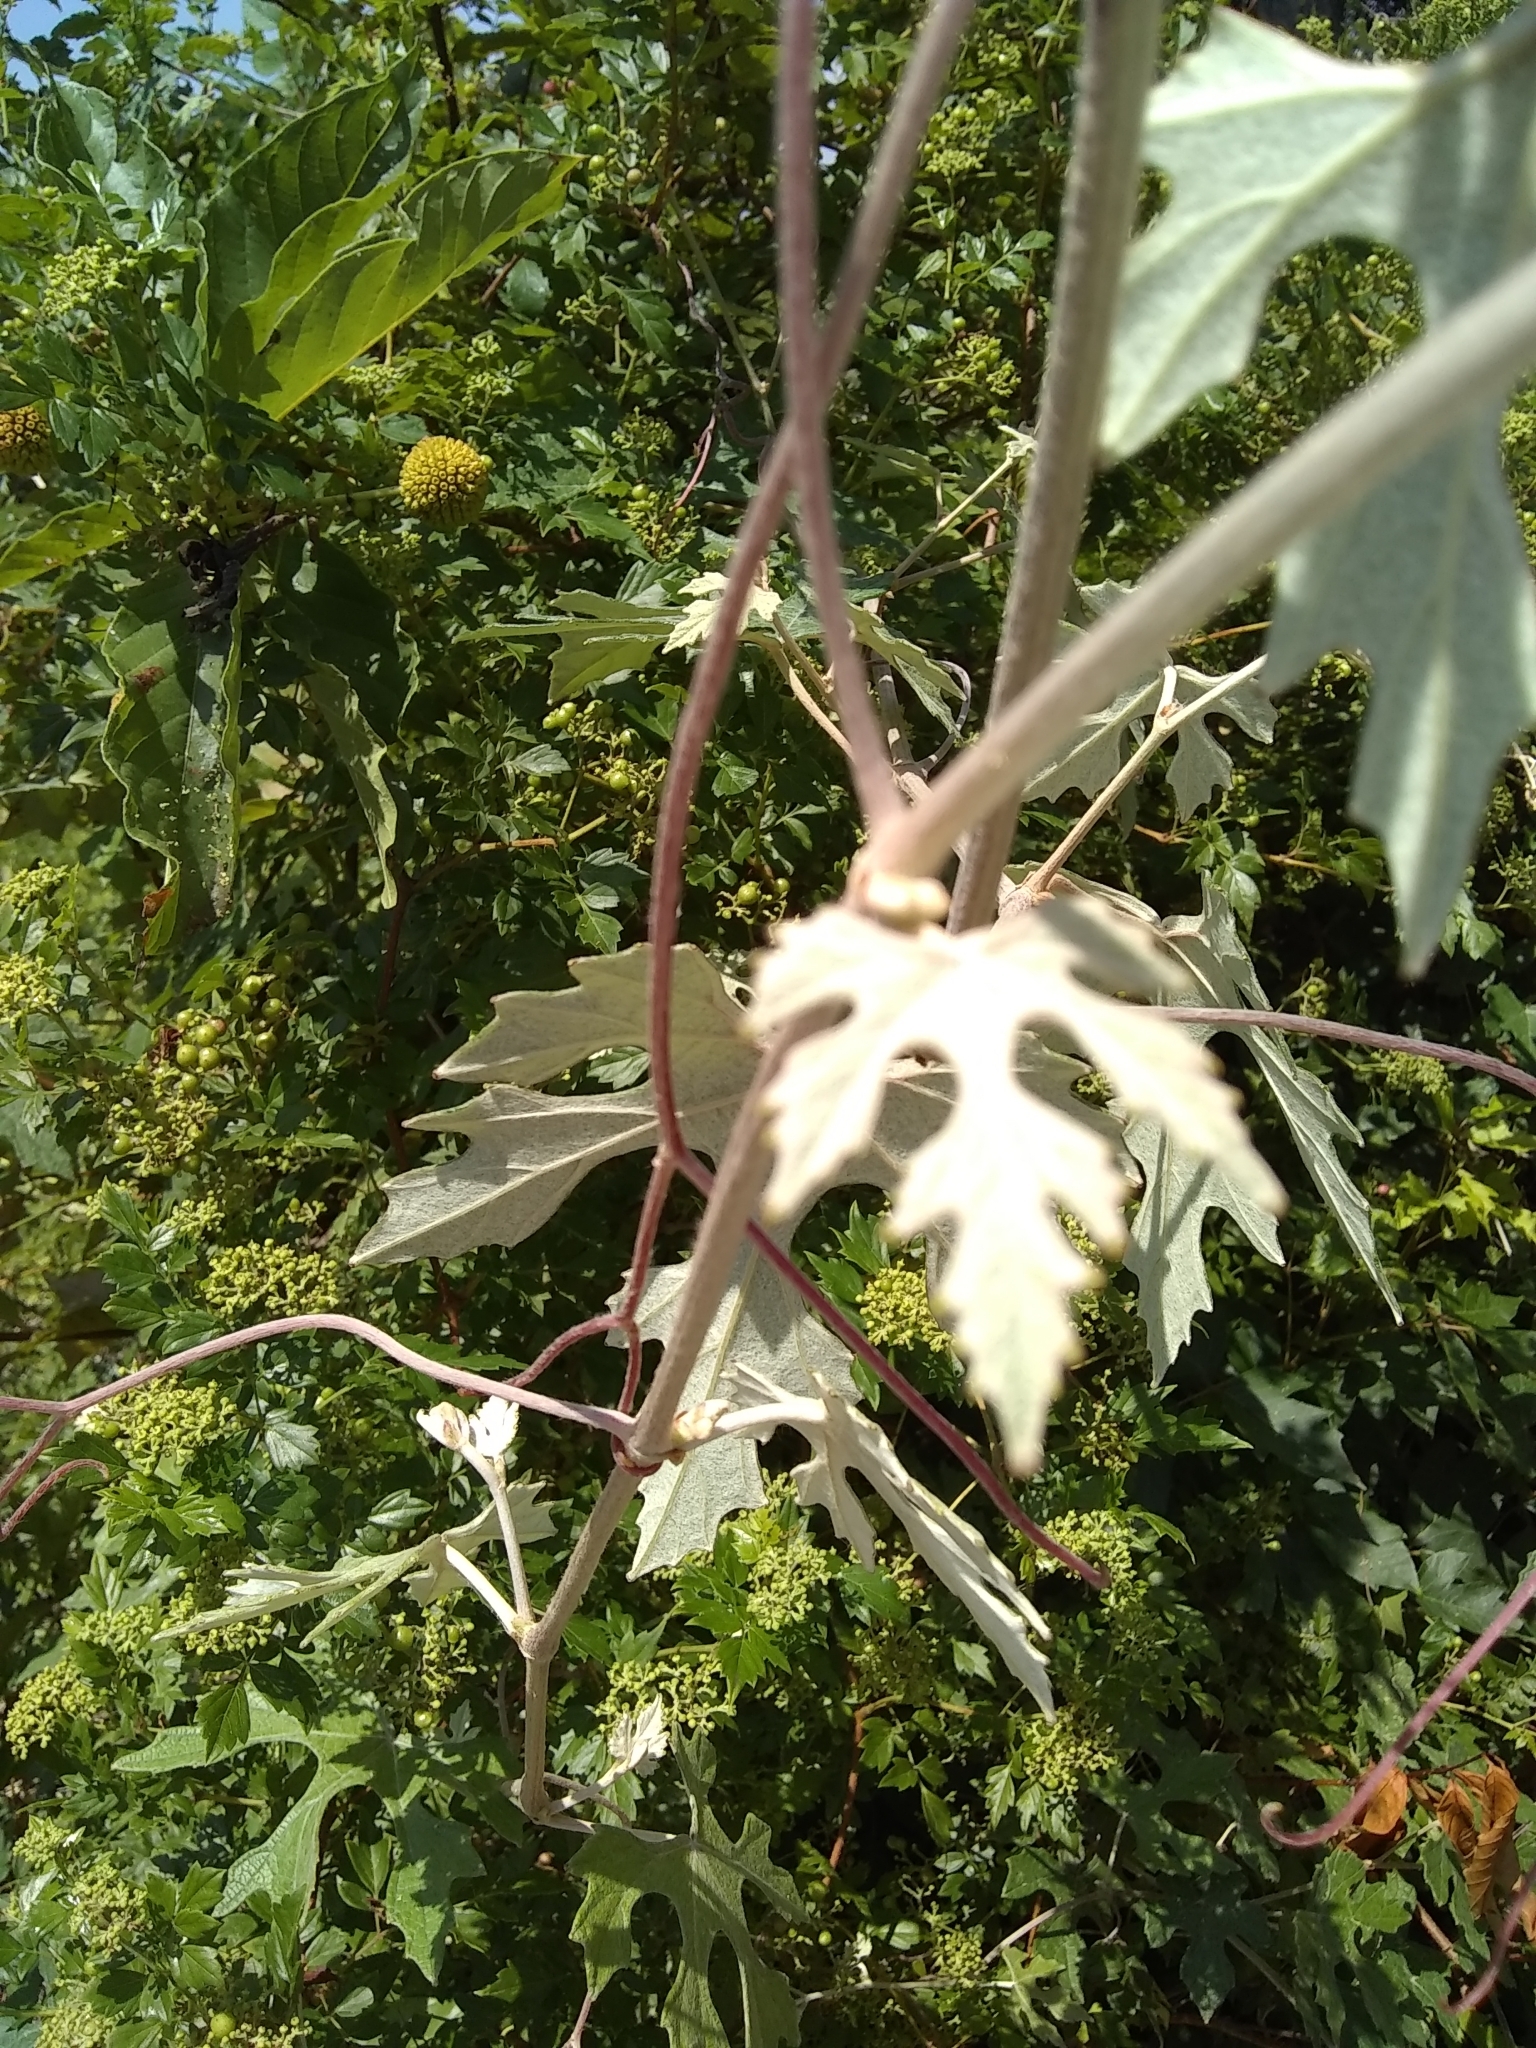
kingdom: Plantae
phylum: Tracheophyta
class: Magnoliopsida
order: Vitales
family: Vitaceae
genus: Vitis
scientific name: Vitis mustangensis
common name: Mustang grape
